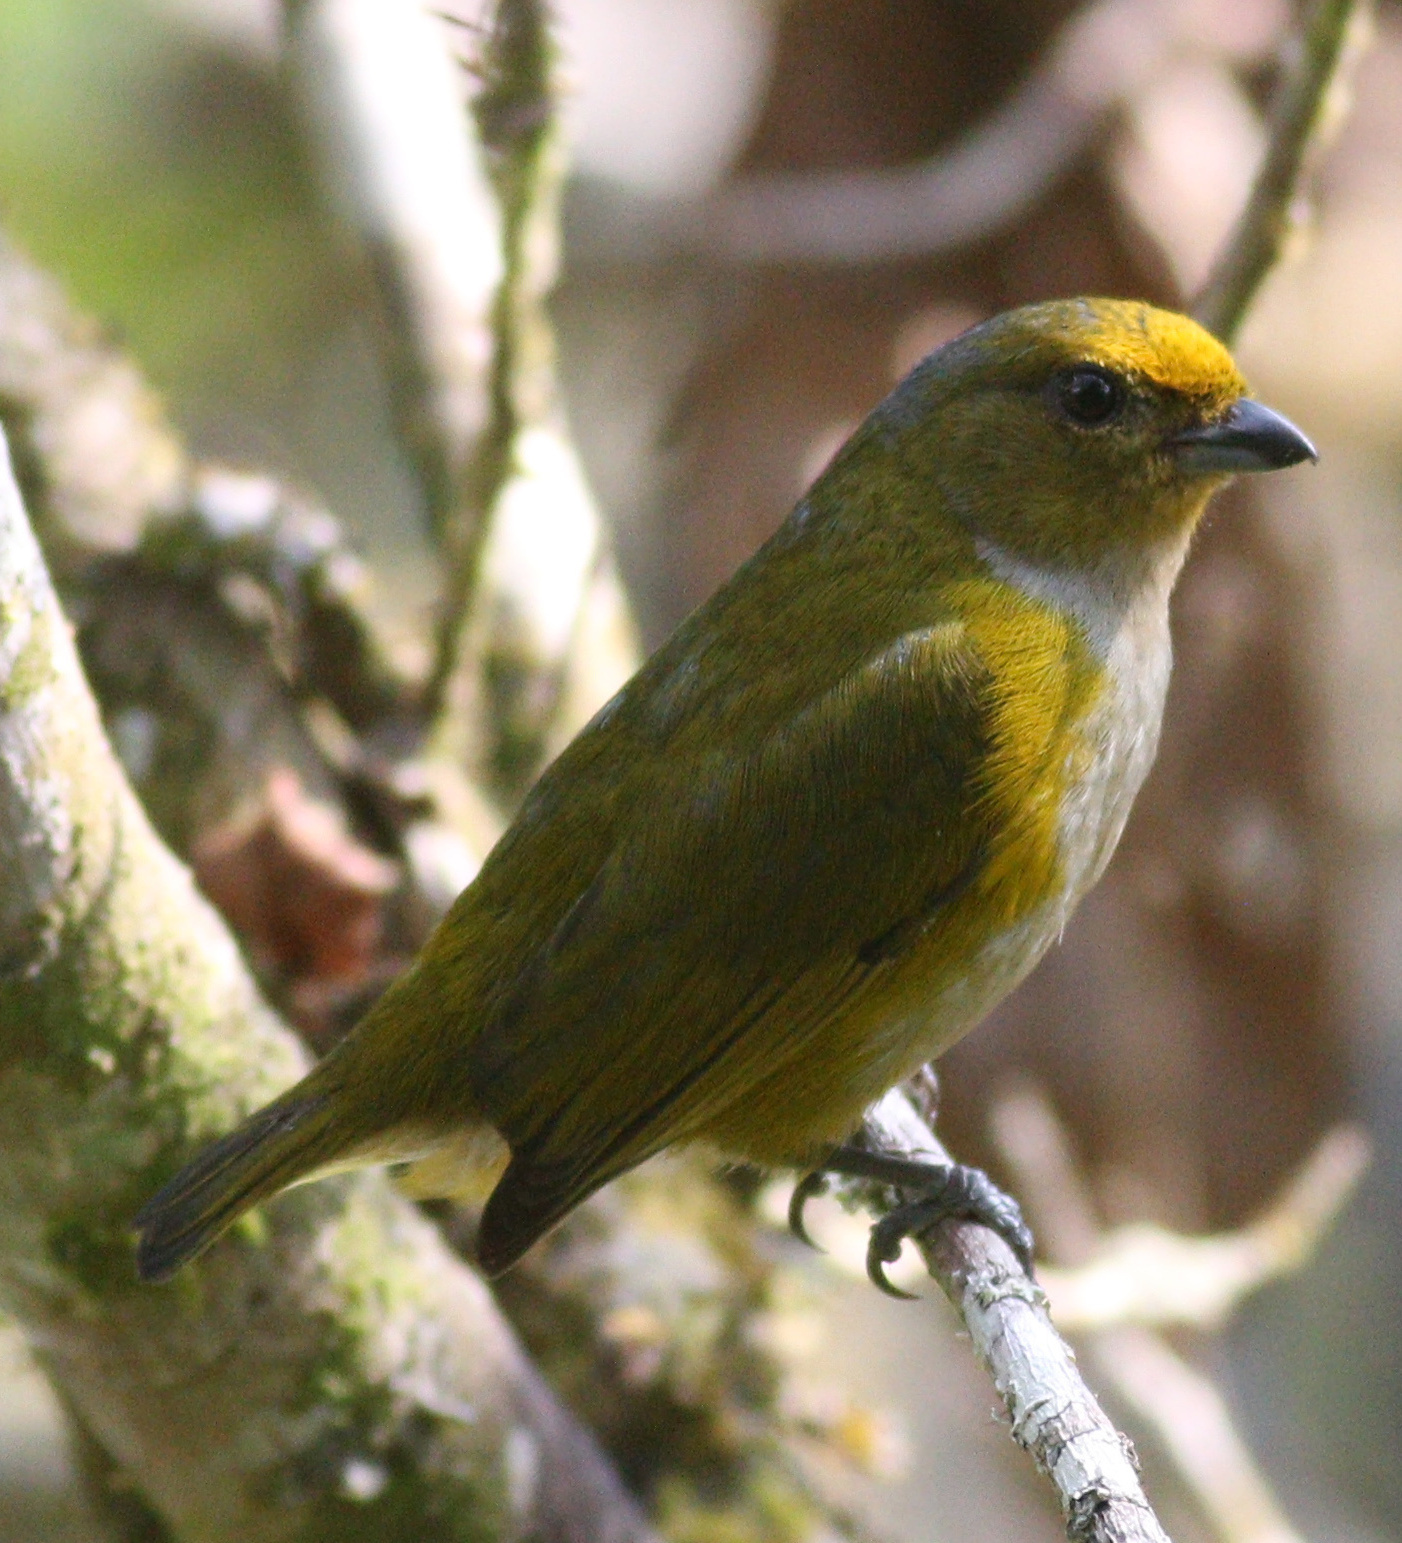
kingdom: Animalia
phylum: Chordata
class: Aves
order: Passeriformes
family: Fringillidae
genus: Euphonia
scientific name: Euphonia xanthogaster
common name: Orange-bellied euphonia
